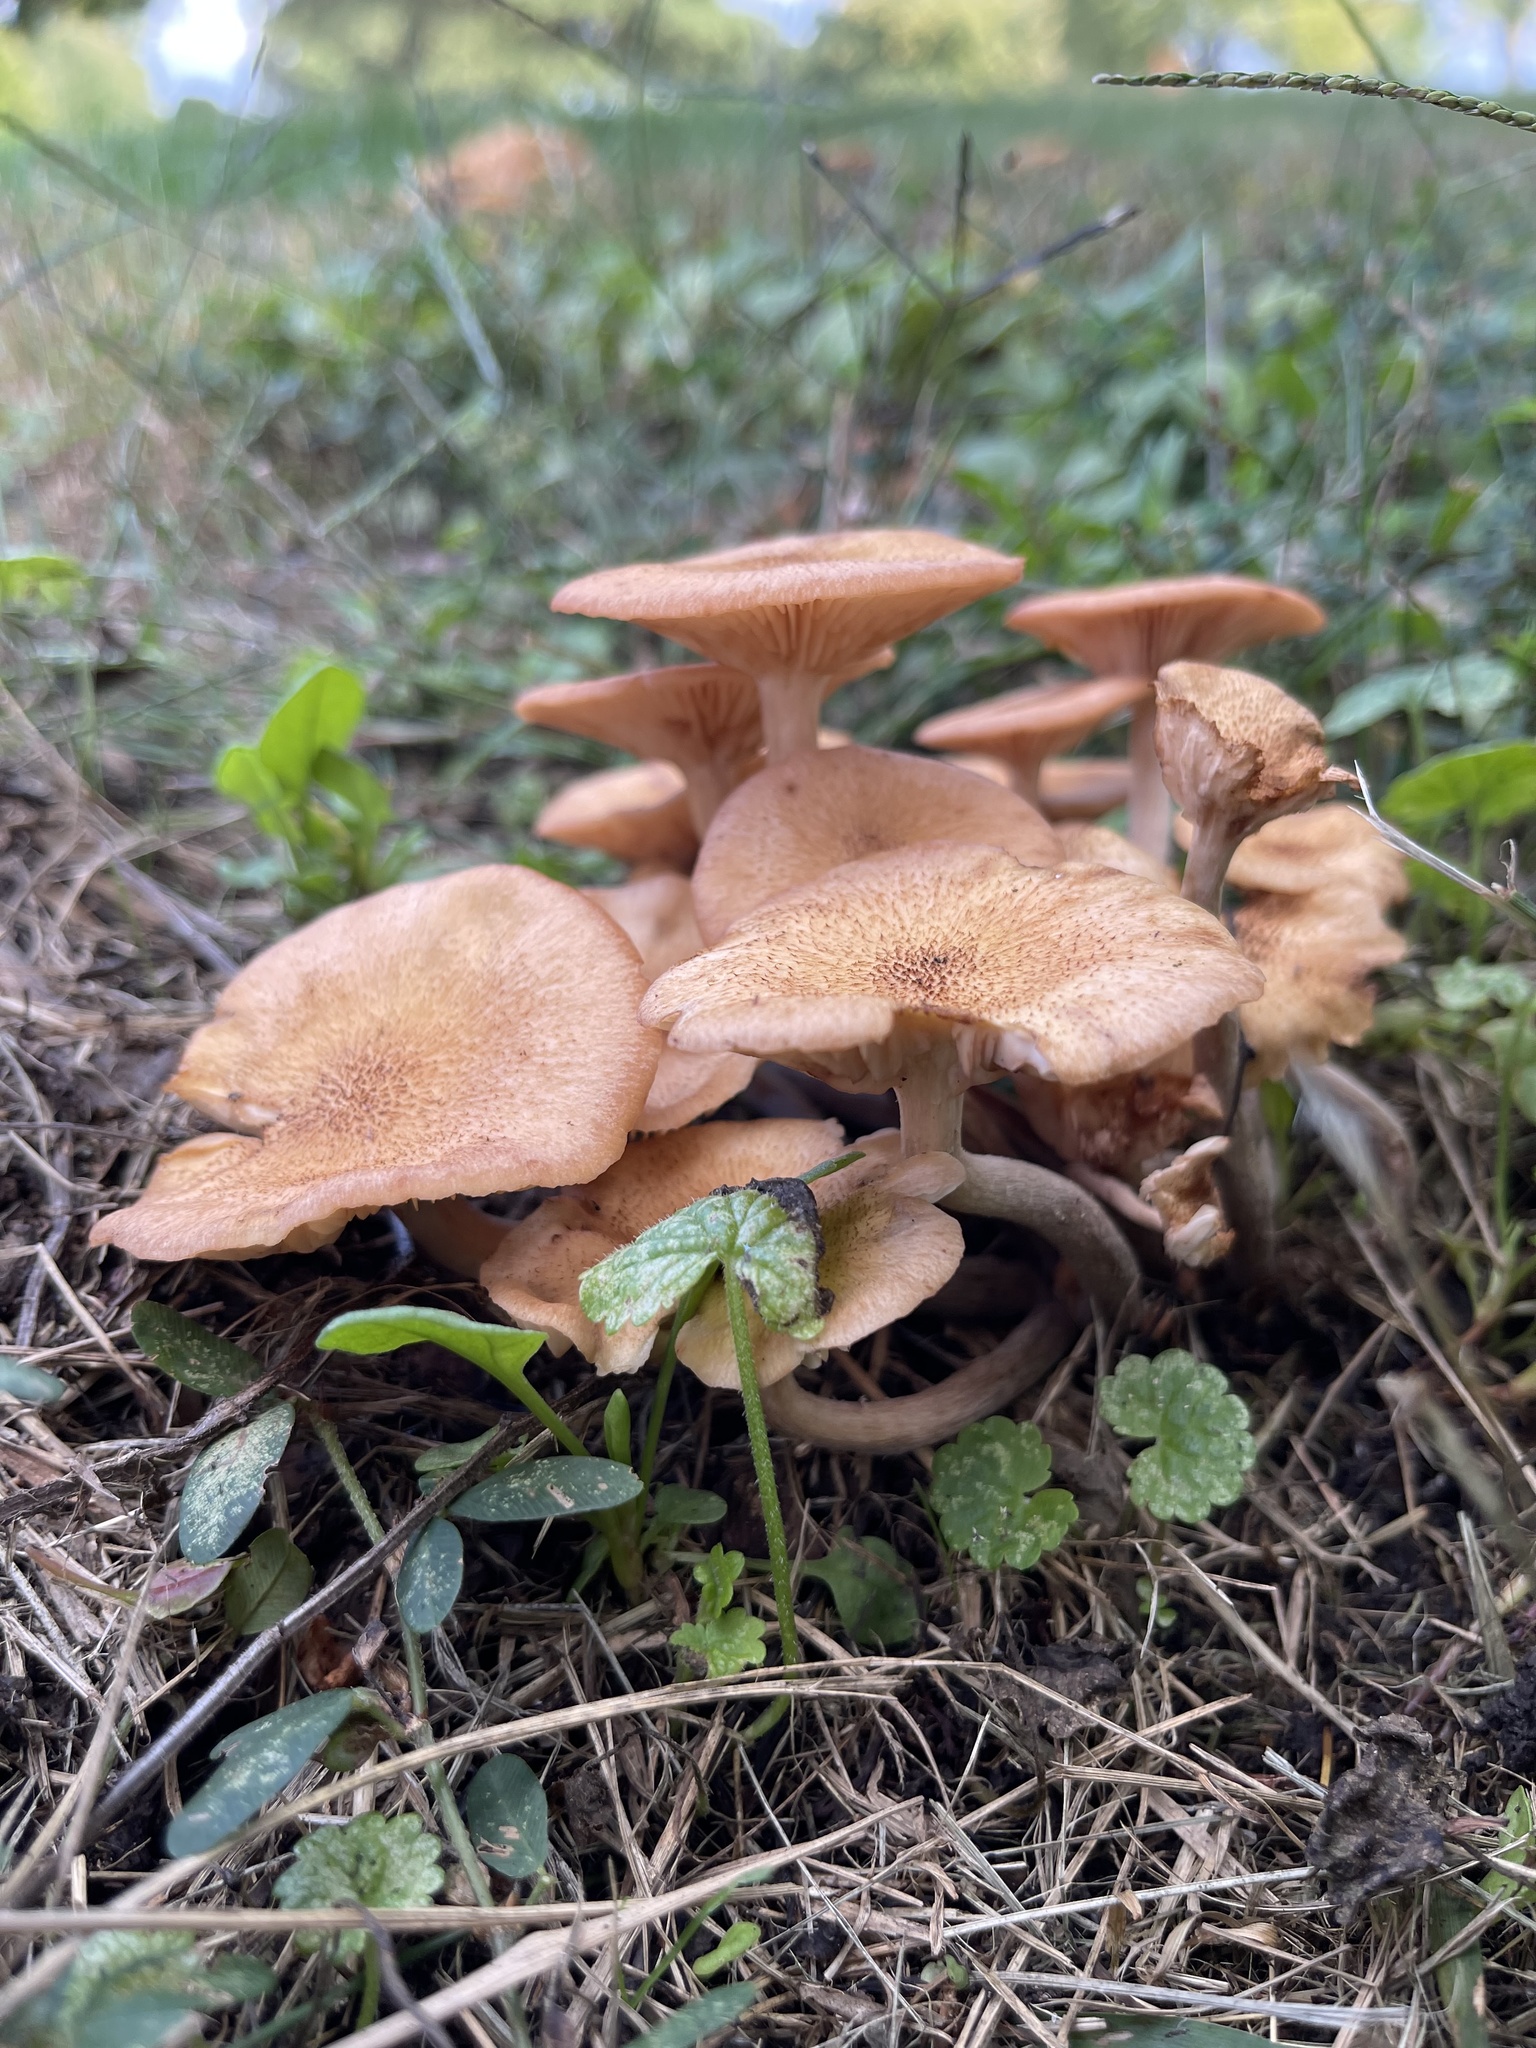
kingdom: Fungi
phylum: Basidiomycota
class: Agaricomycetes
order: Agaricales
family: Physalacriaceae
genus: Desarmillaria
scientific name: Desarmillaria caespitosa
